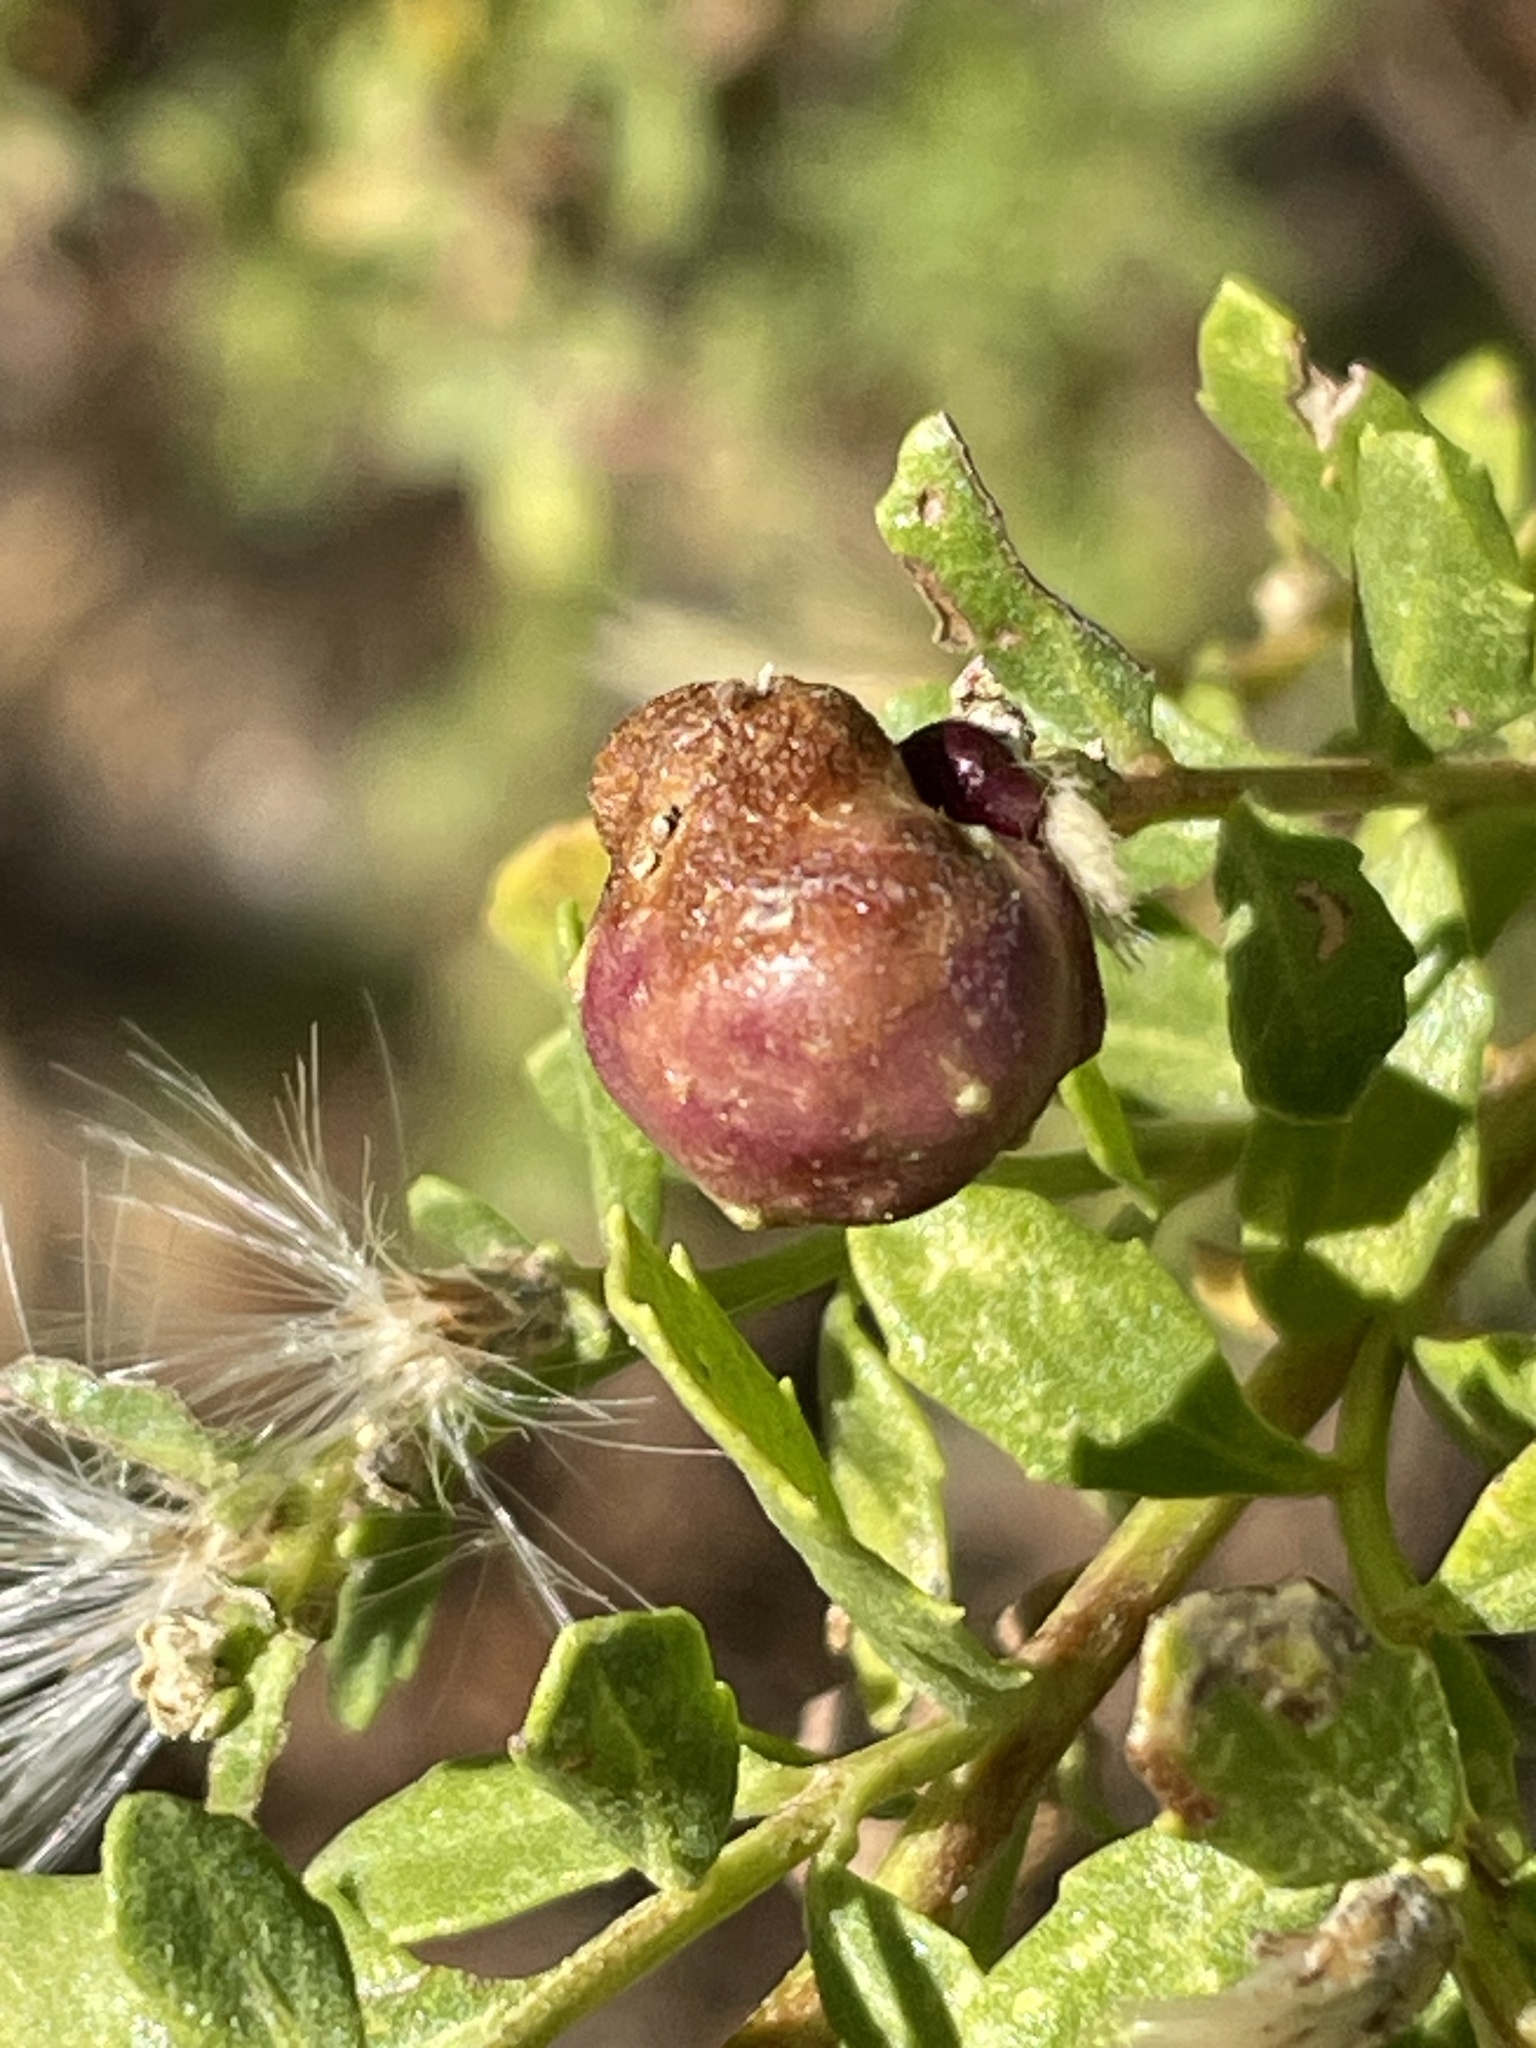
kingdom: Animalia
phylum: Arthropoda
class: Insecta
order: Diptera
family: Cecidomyiidae
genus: Rhopalomyia
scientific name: Rhopalomyia californica
